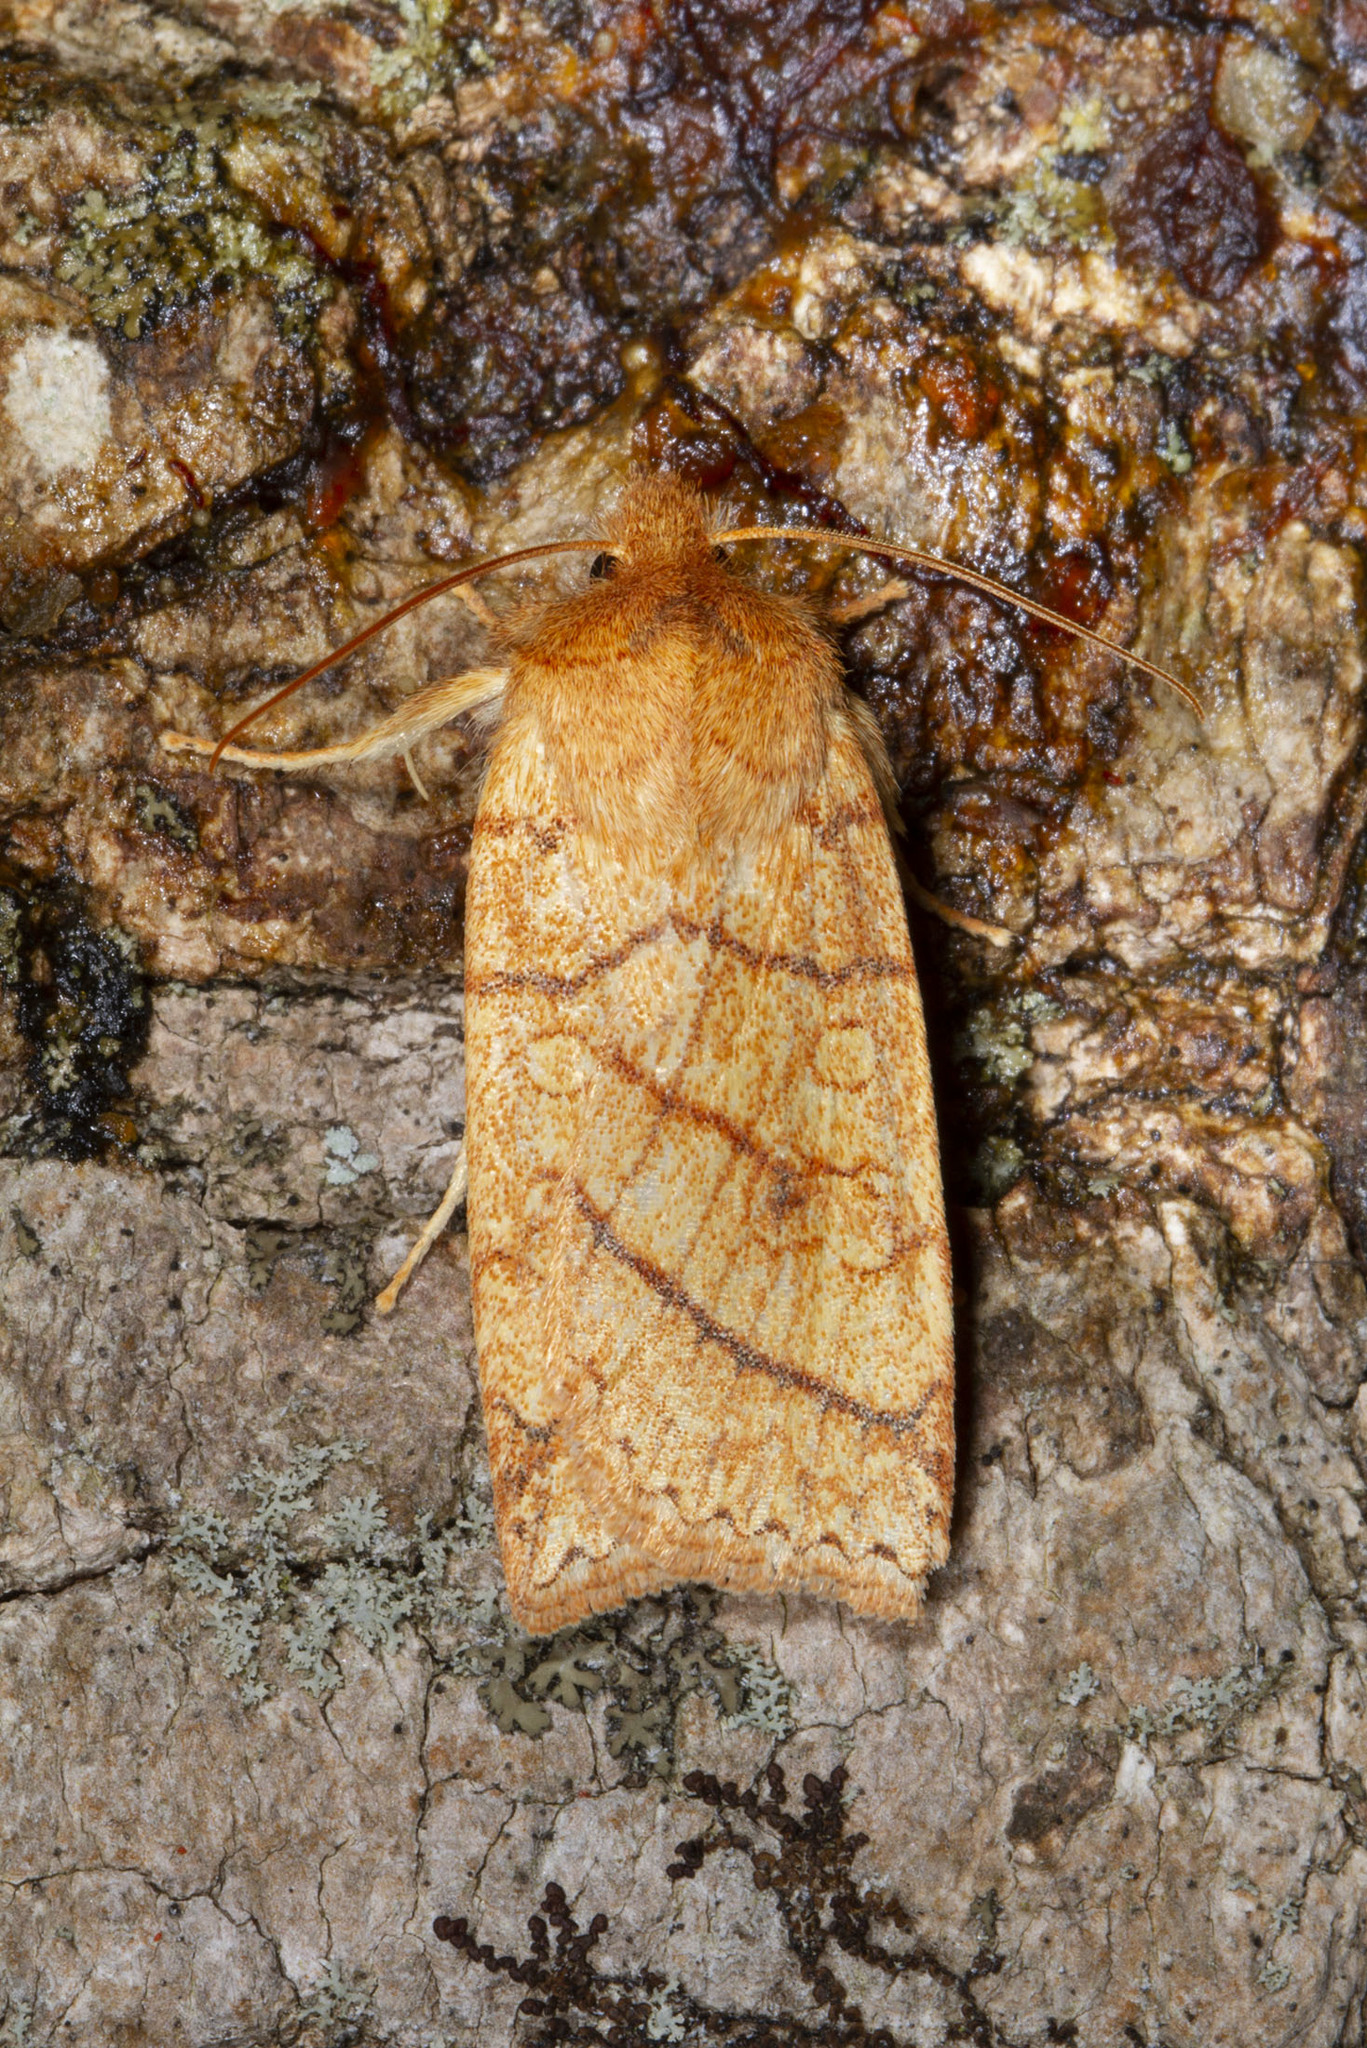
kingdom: Animalia
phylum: Arthropoda
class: Insecta
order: Lepidoptera
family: Noctuidae
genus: Pyreferra
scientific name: Pyreferra hesperidago
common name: Mustard sallow
